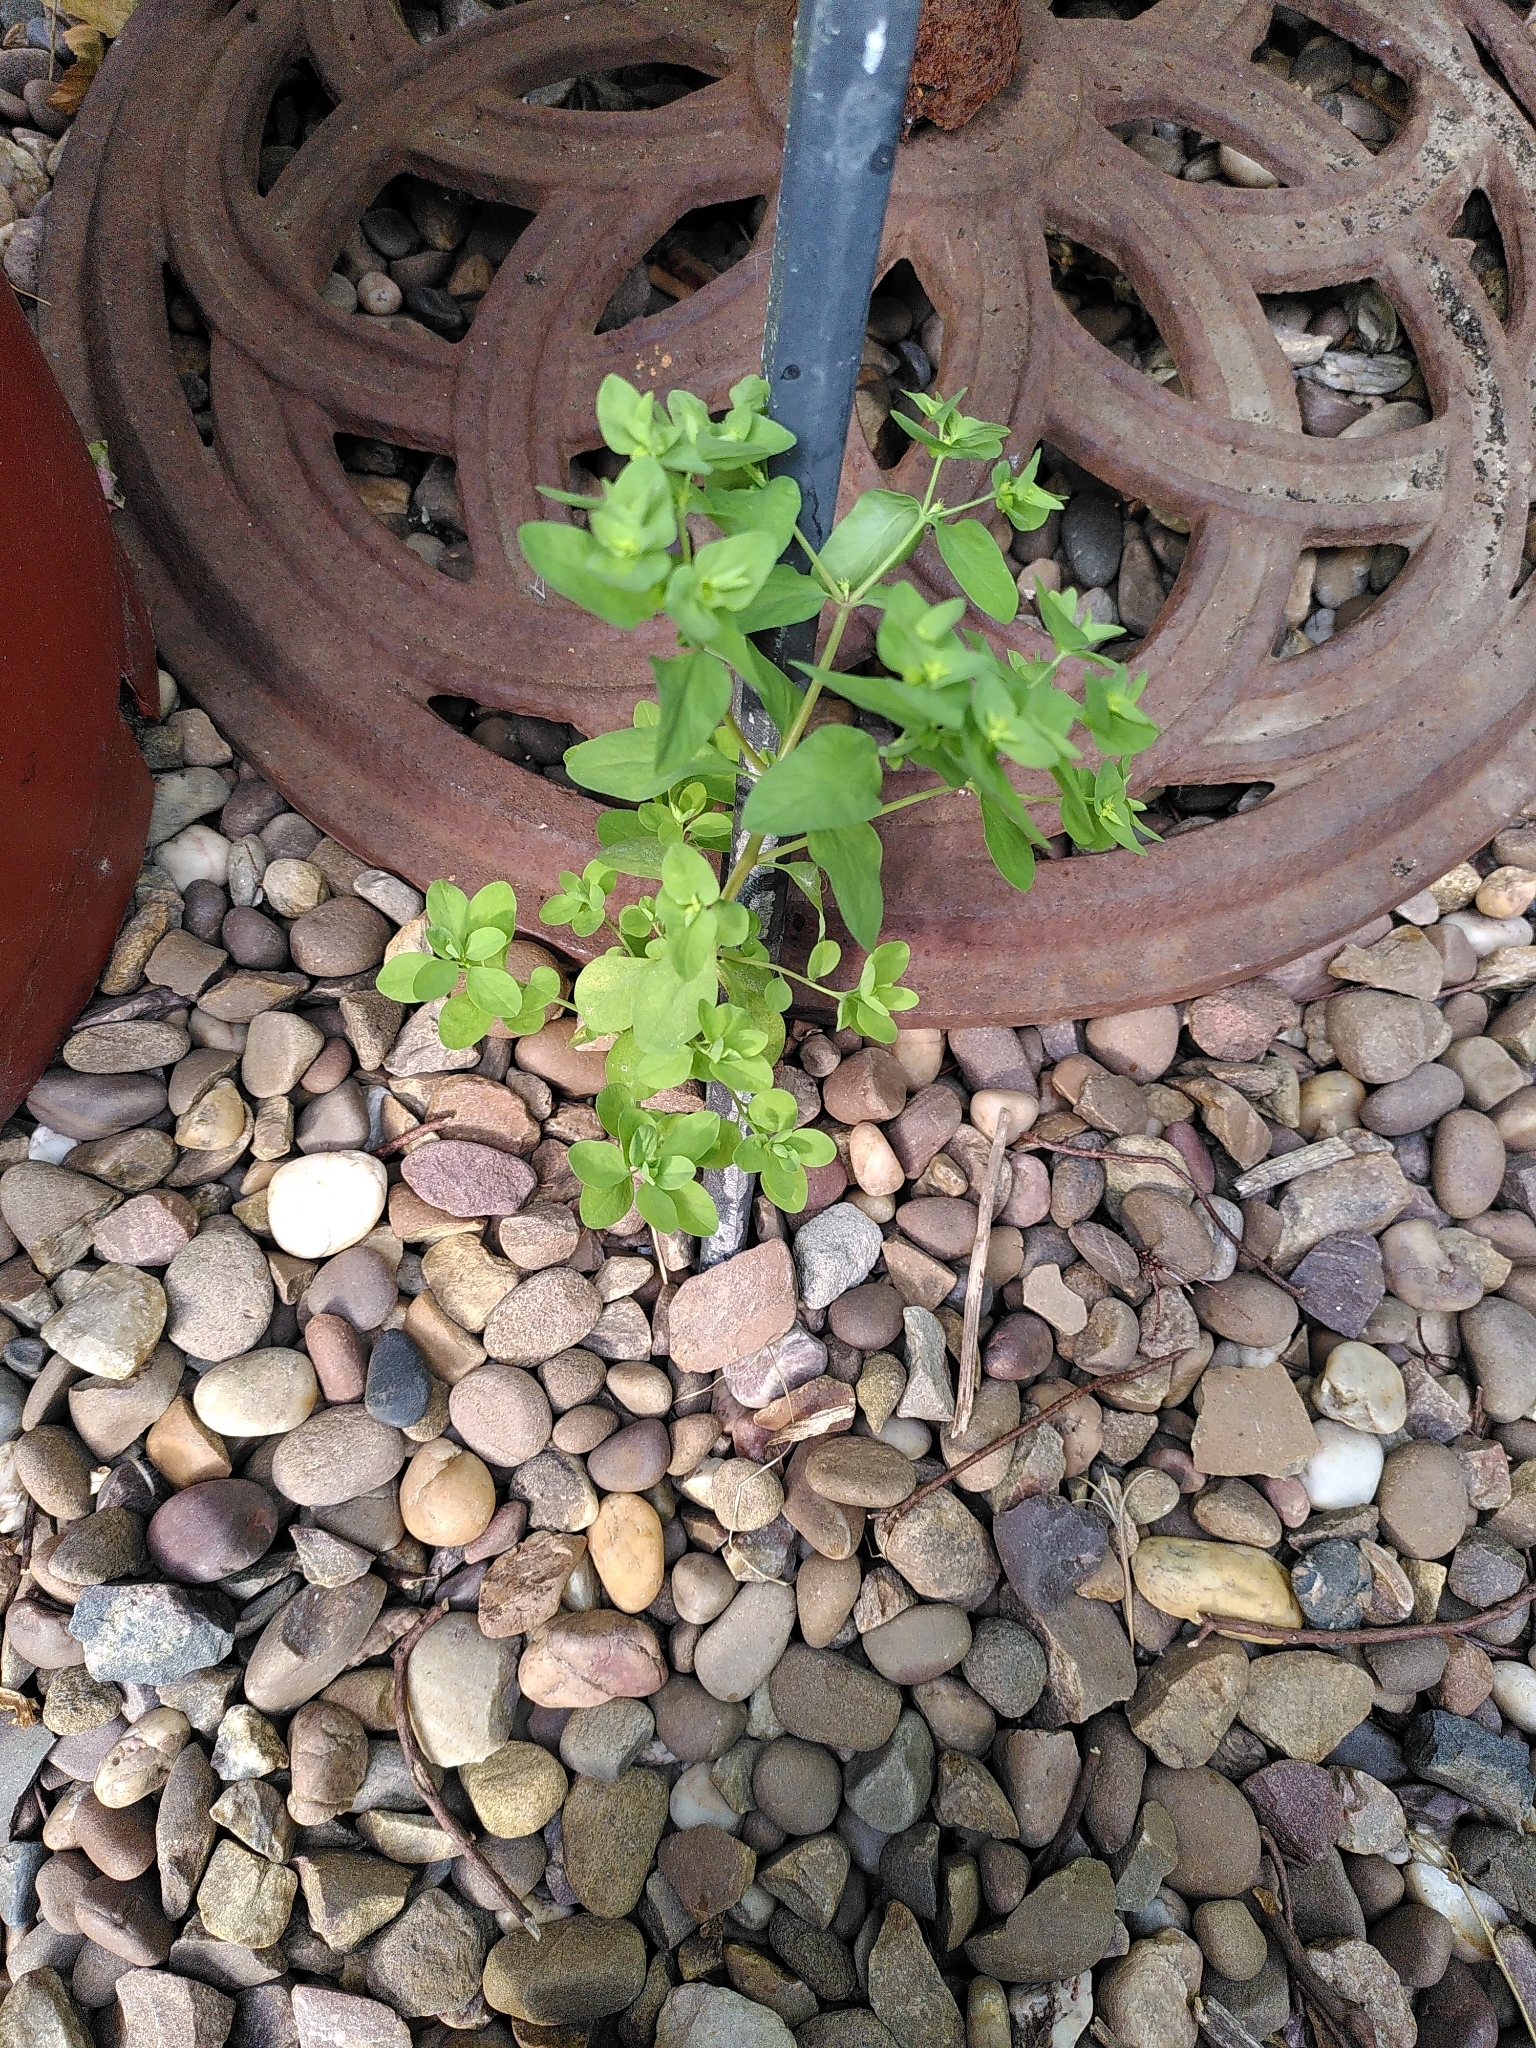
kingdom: Plantae
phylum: Tracheophyta
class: Magnoliopsida
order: Malpighiales
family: Euphorbiaceae
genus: Euphorbia
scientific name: Euphorbia peplus
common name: Petty spurge
